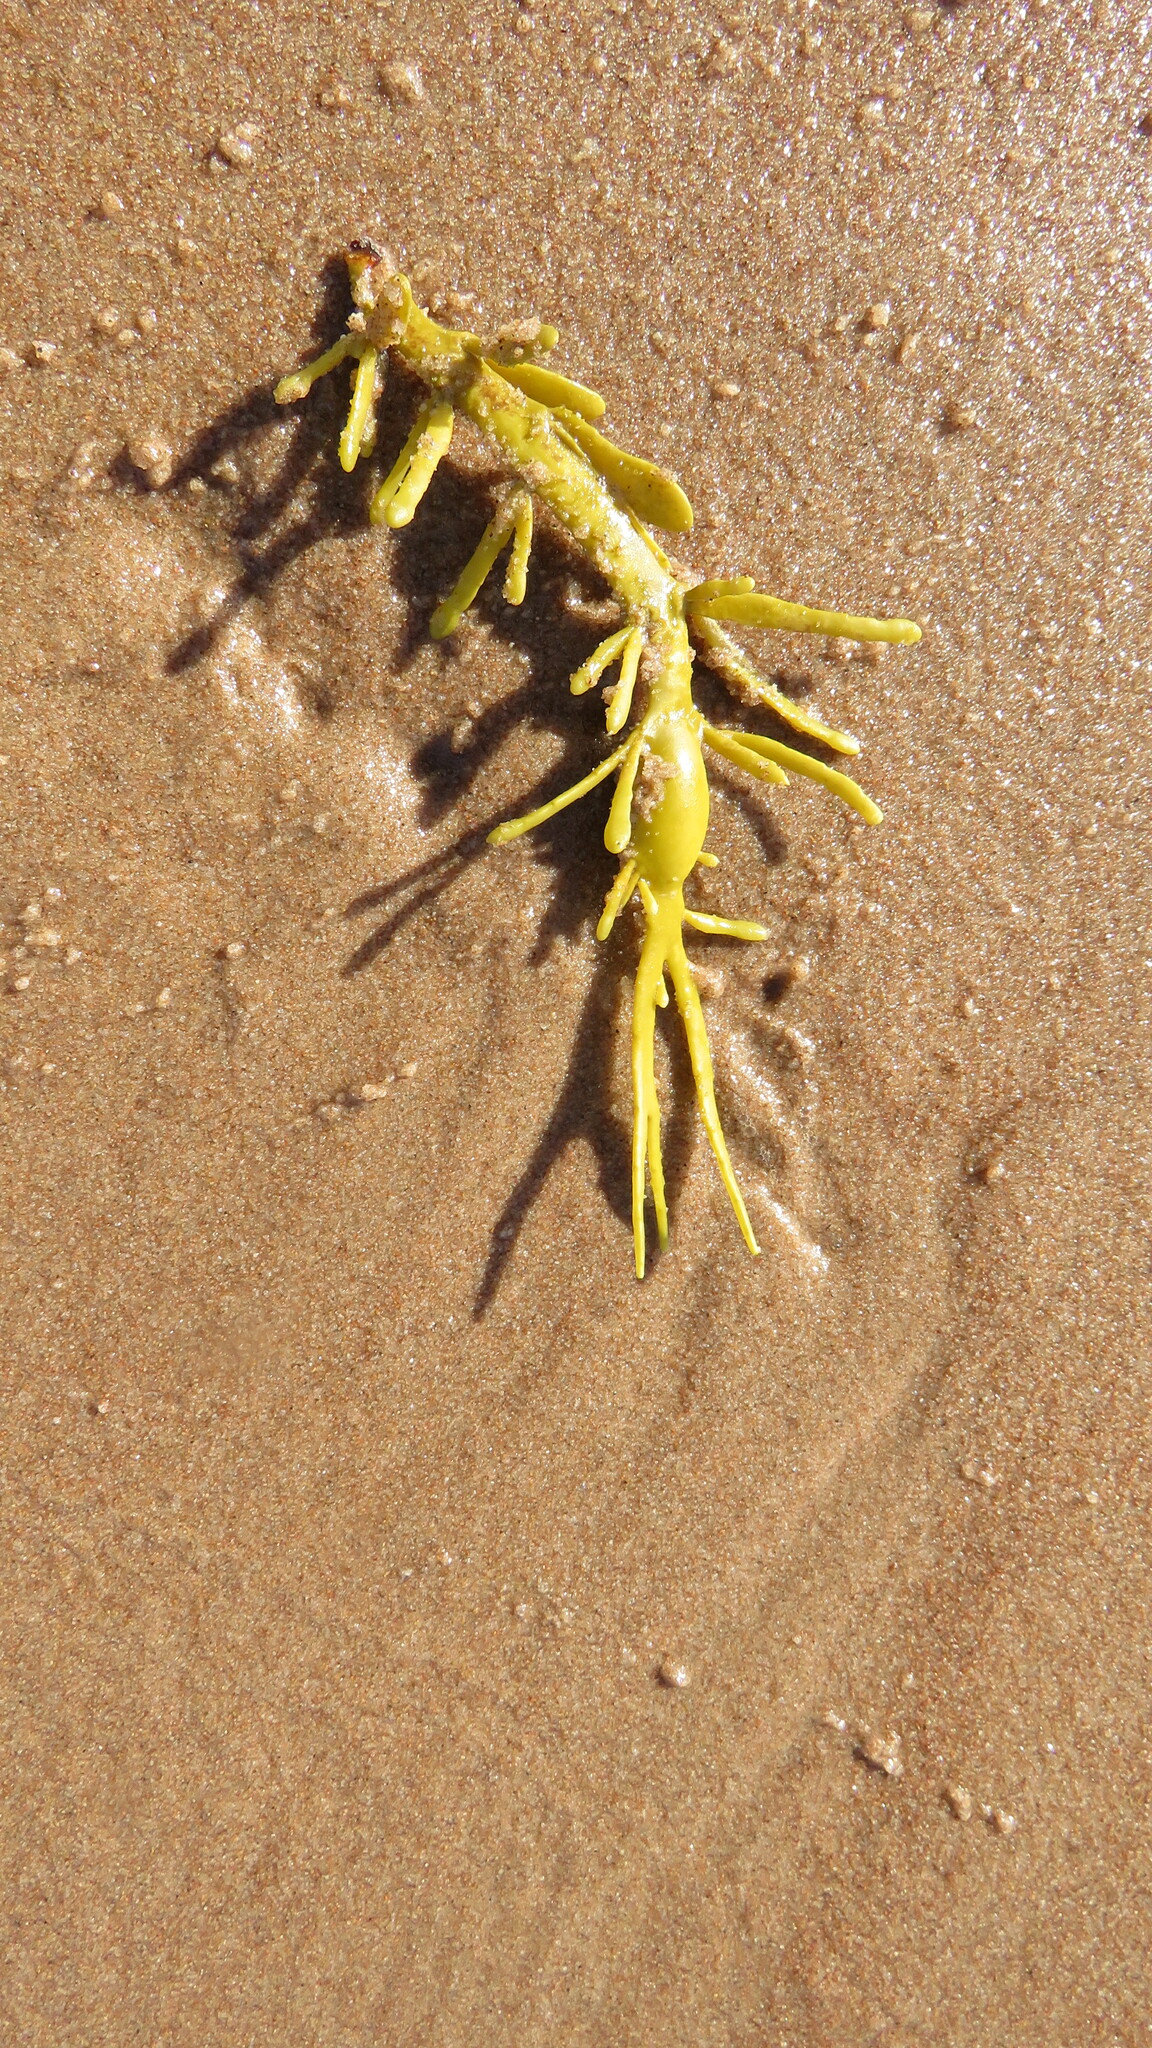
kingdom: Chromista
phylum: Ochrophyta
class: Phaeophyceae
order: Fucales
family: Fucaceae
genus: Ascophyllum
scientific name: Ascophyllum nodosum
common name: Knotted wrack
